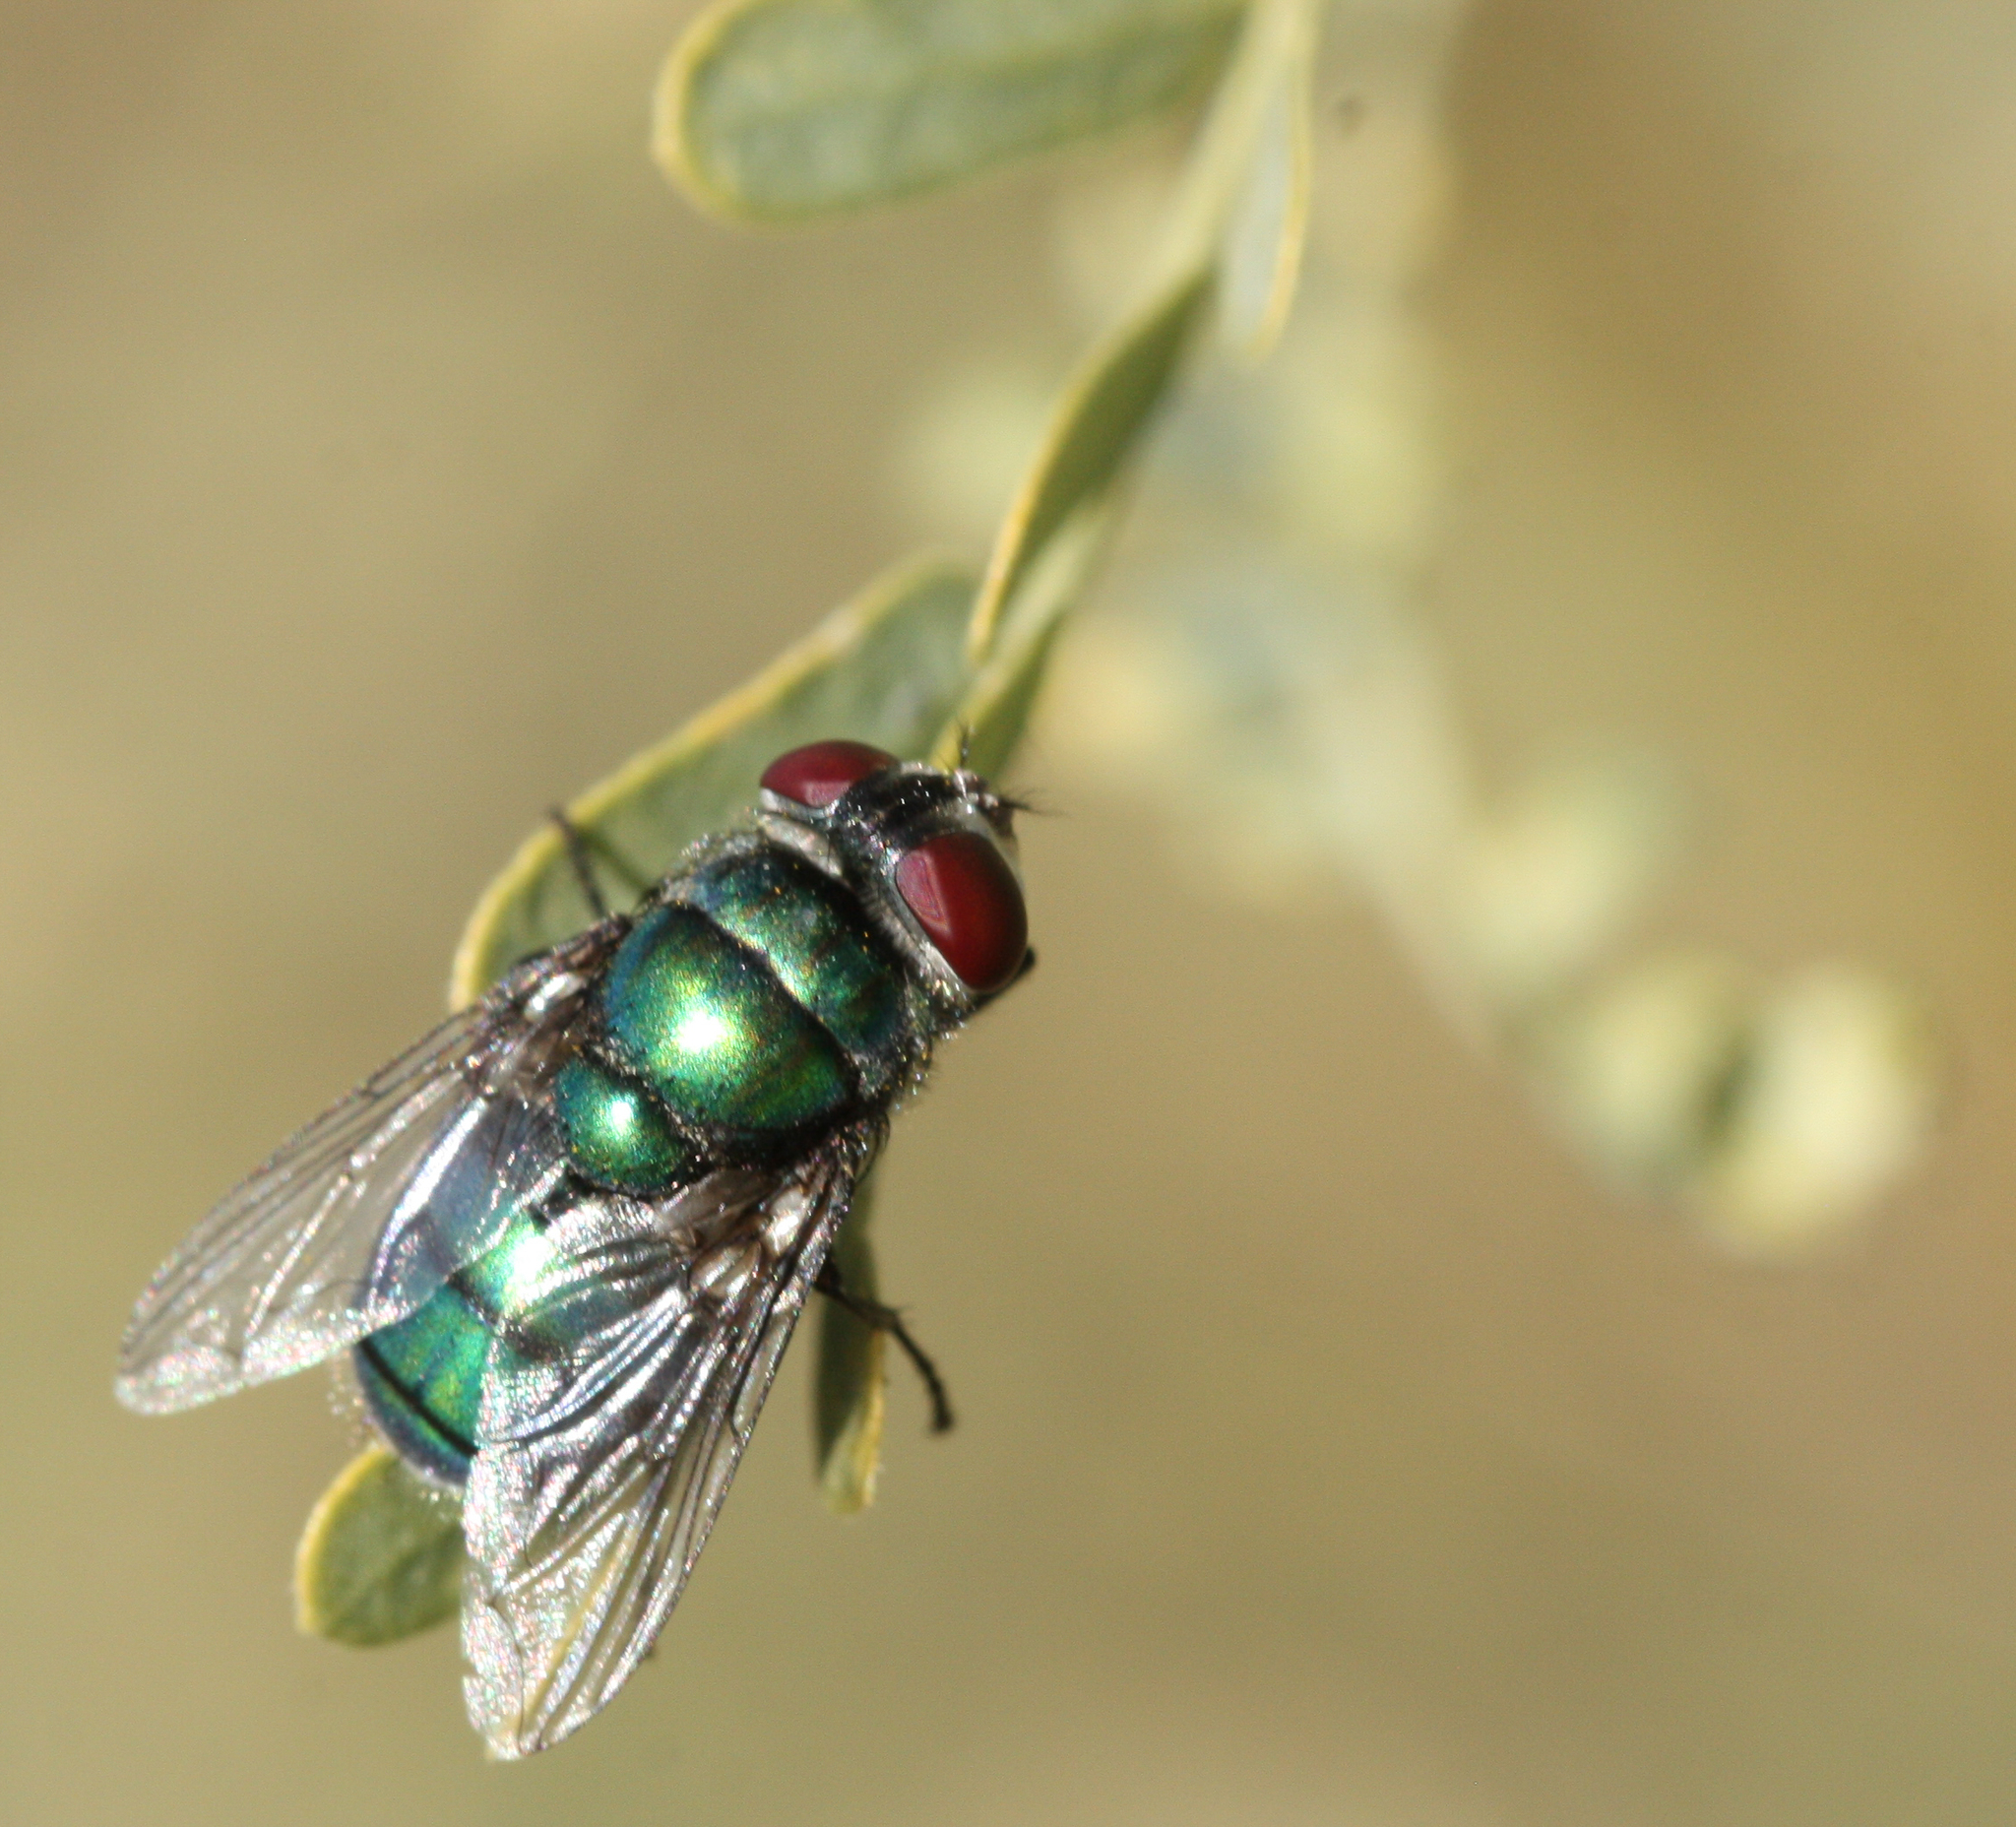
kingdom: Animalia
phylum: Arthropoda
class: Insecta
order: Diptera
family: Calliphoridae
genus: Chrysomya
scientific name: Chrysomya rufifacies
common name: Blow fly
